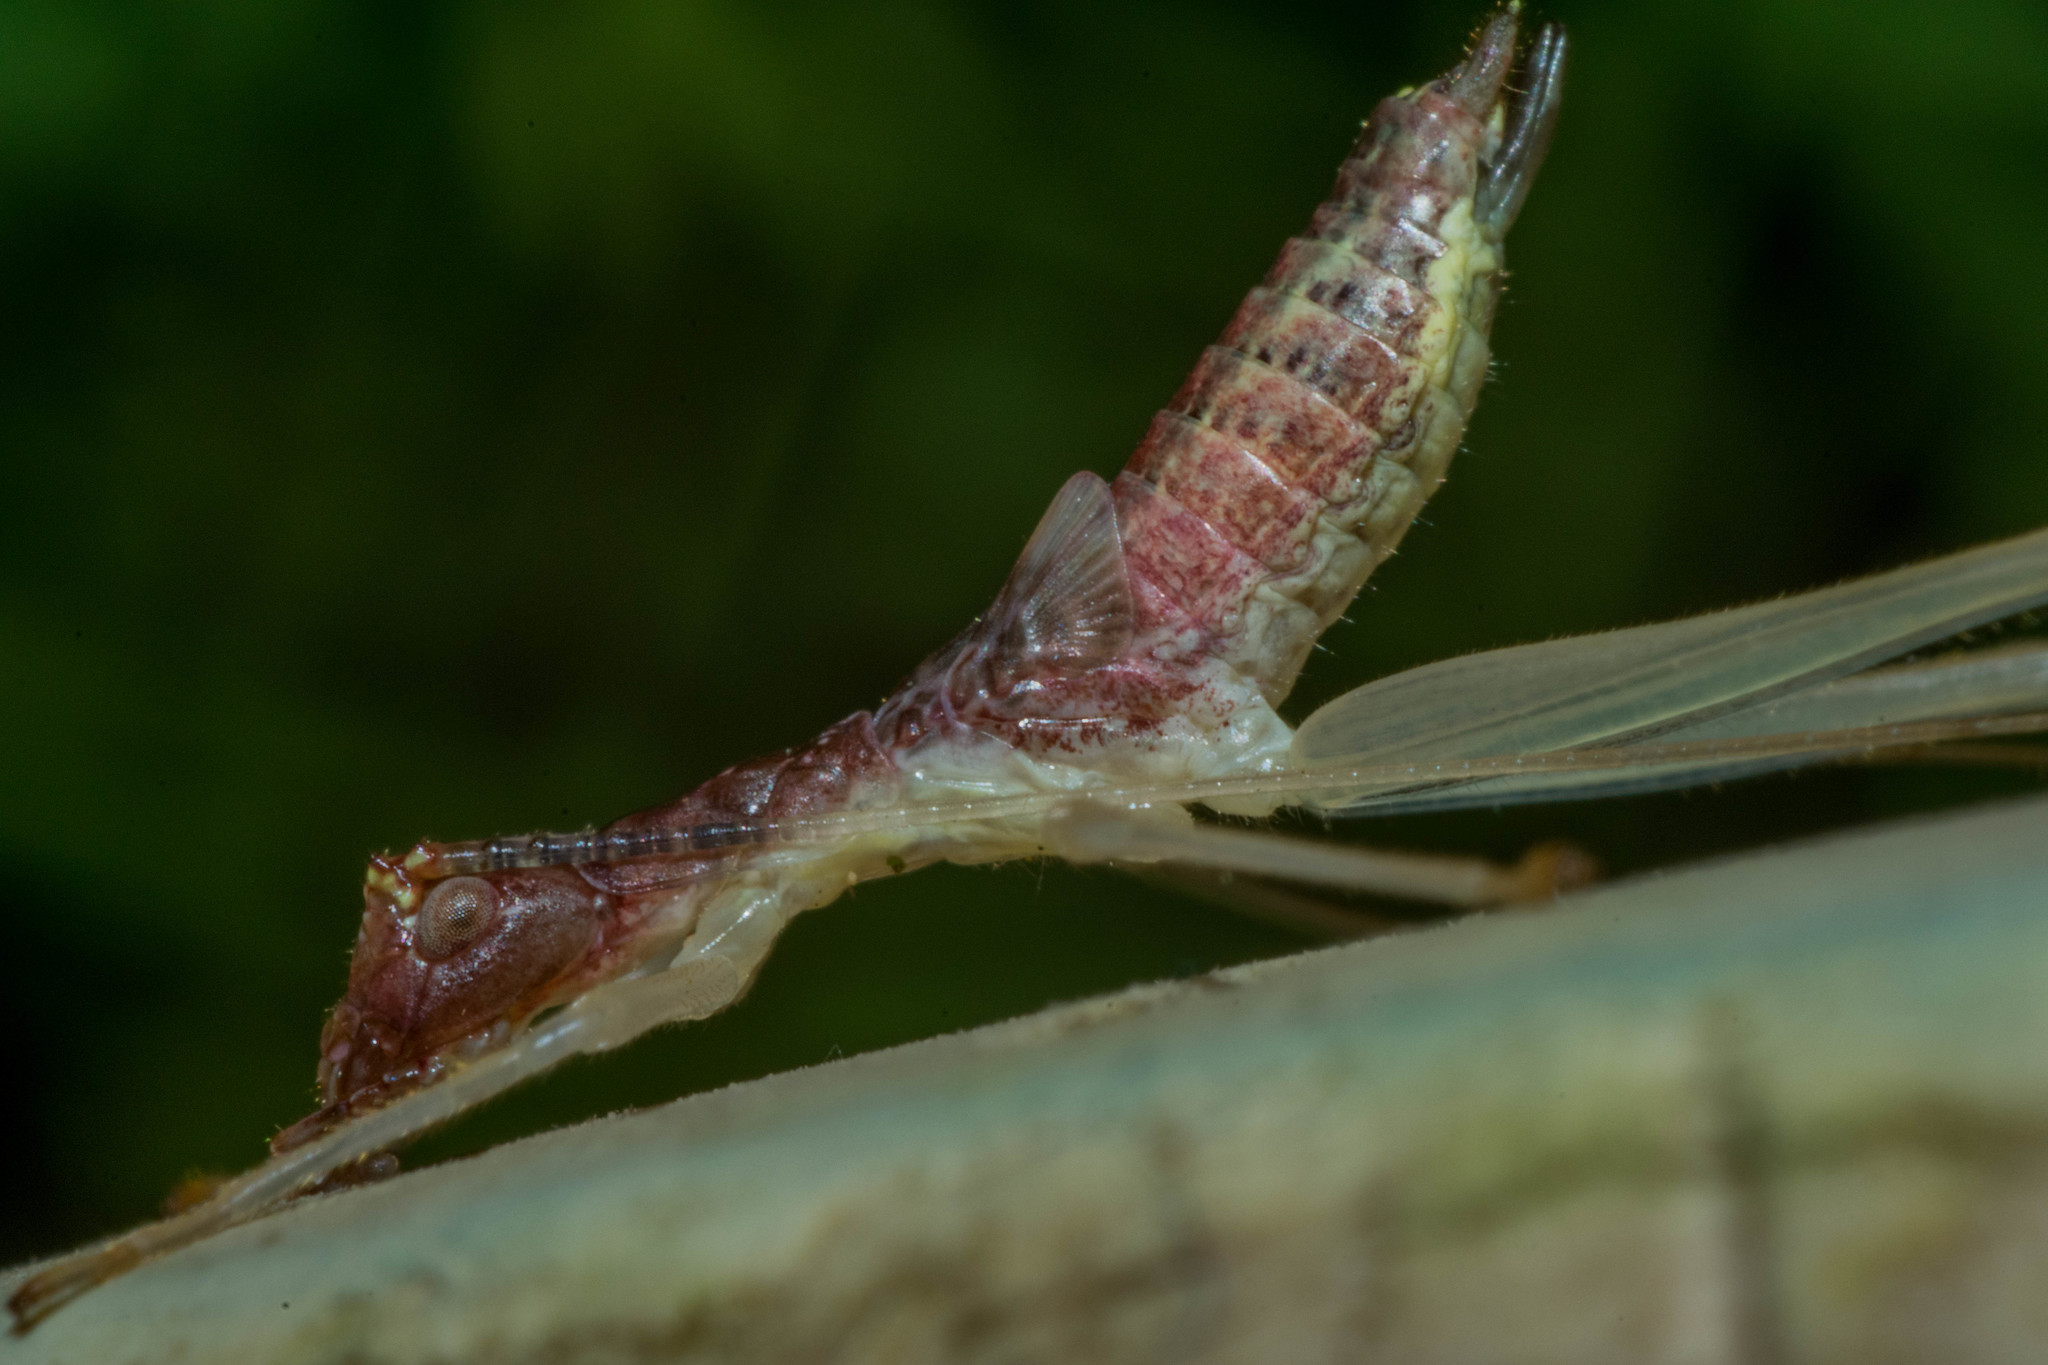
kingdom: Animalia
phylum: Arthropoda
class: Insecta
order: Orthoptera
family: Gryllidae
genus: Neoxabea
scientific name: Neoxabea bipunctata
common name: Two-spotted tree cricket
